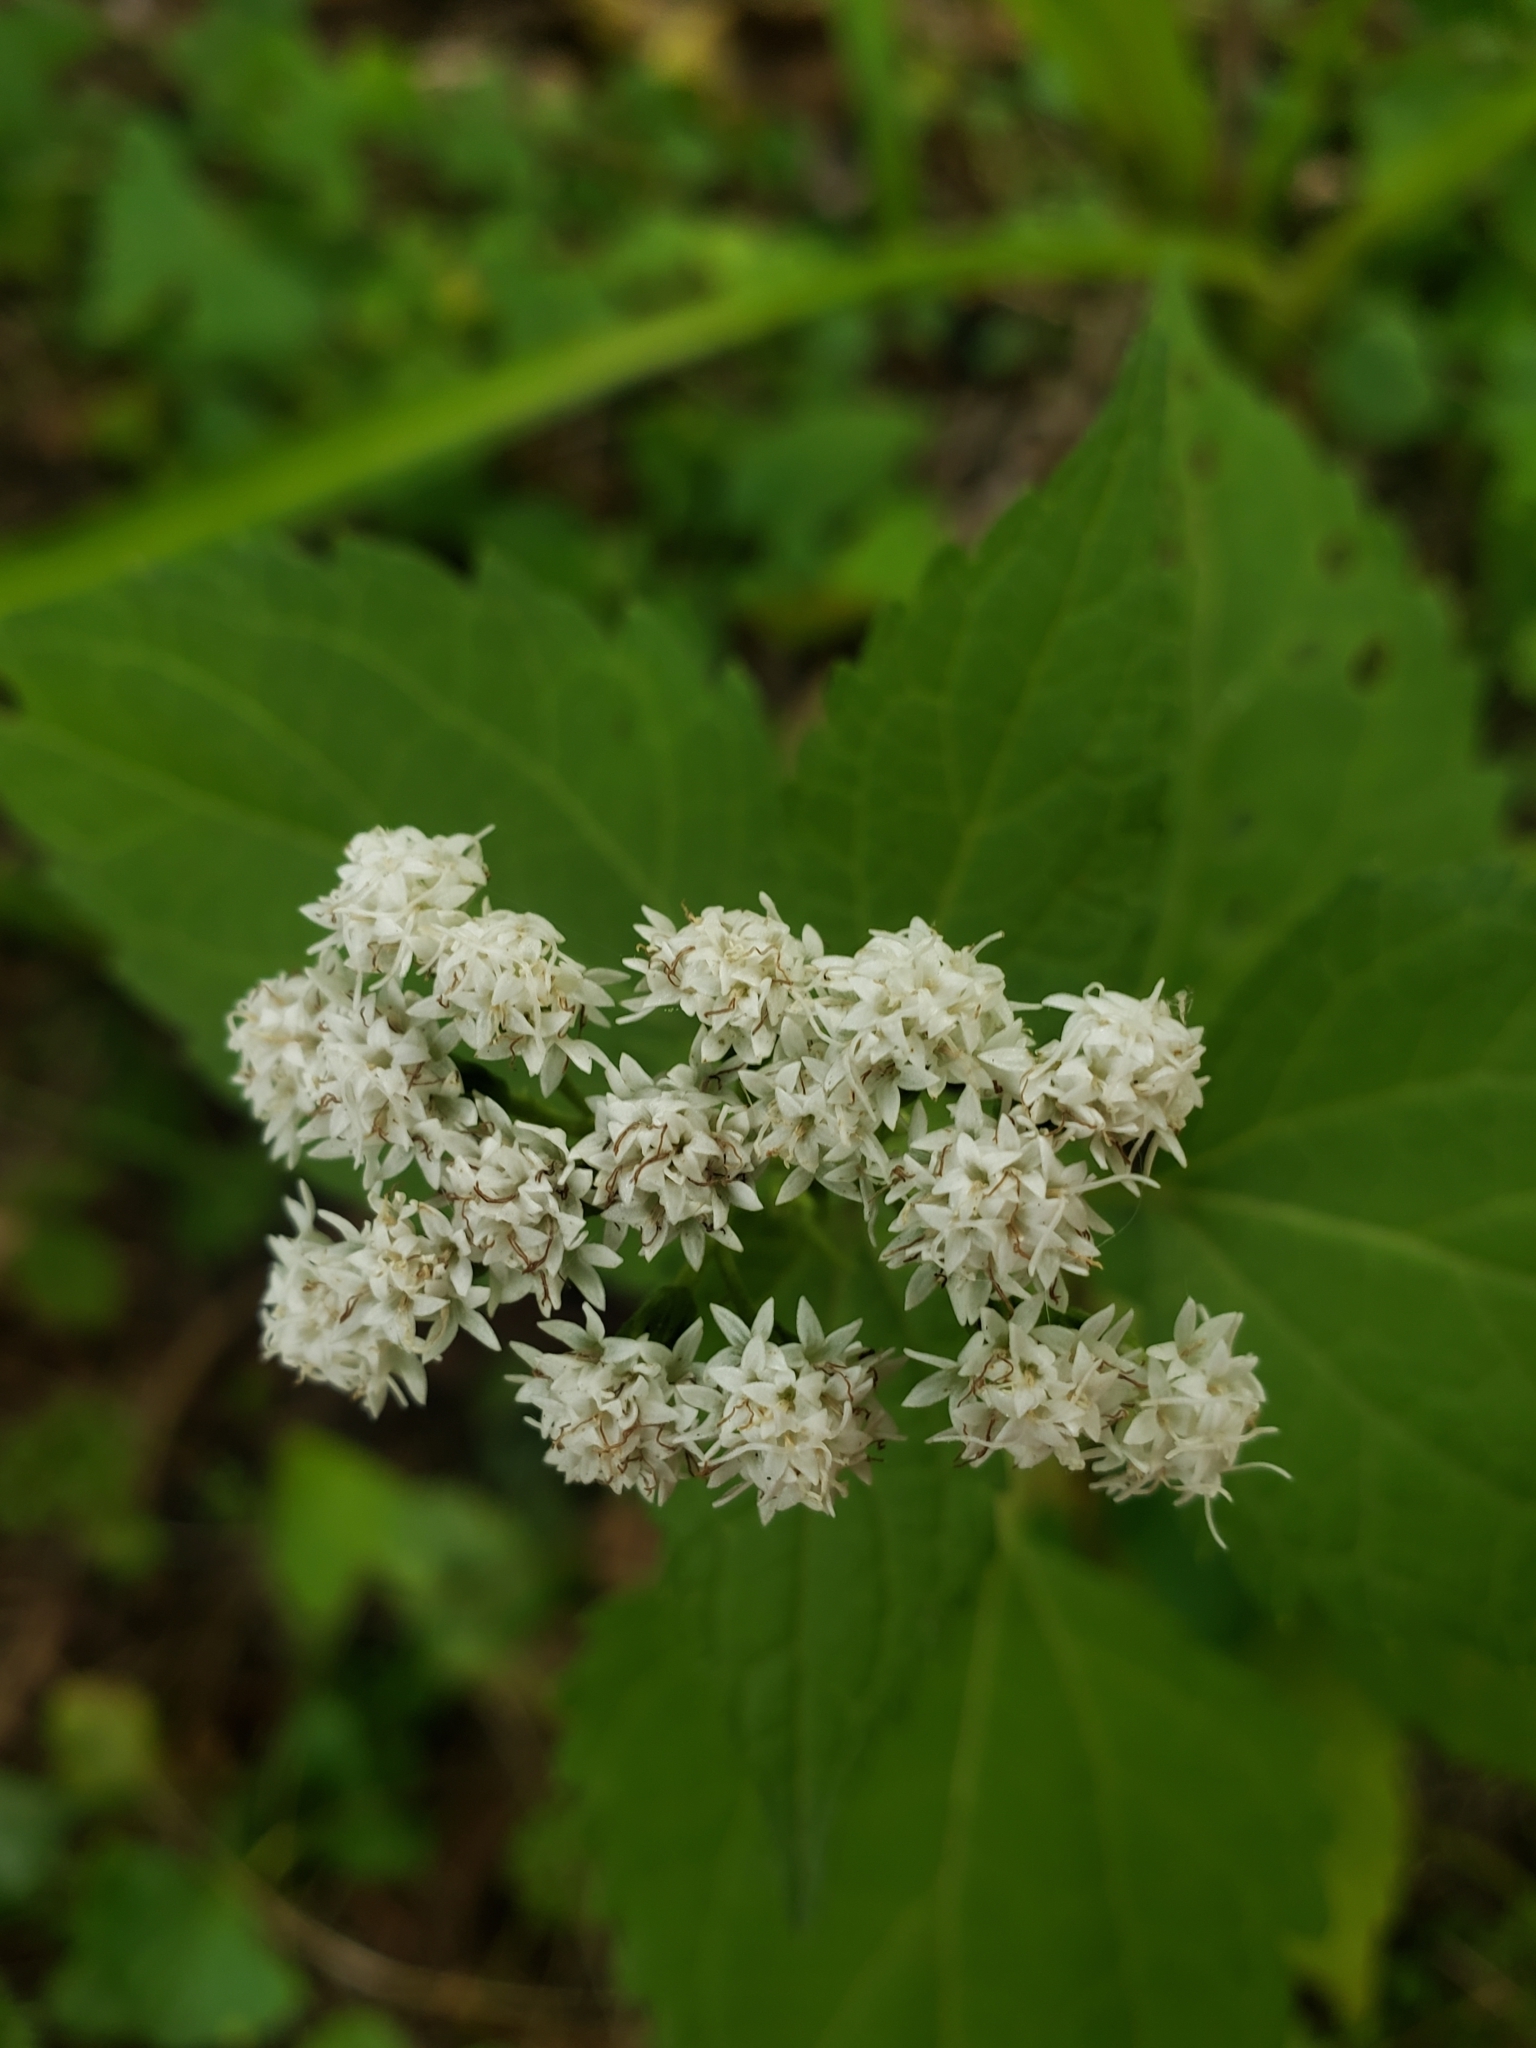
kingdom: Plantae
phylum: Tracheophyta
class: Magnoliopsida
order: Asterales
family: Asteraceae
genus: Ageratina
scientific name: Ageratina altissima
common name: White snakeroot
